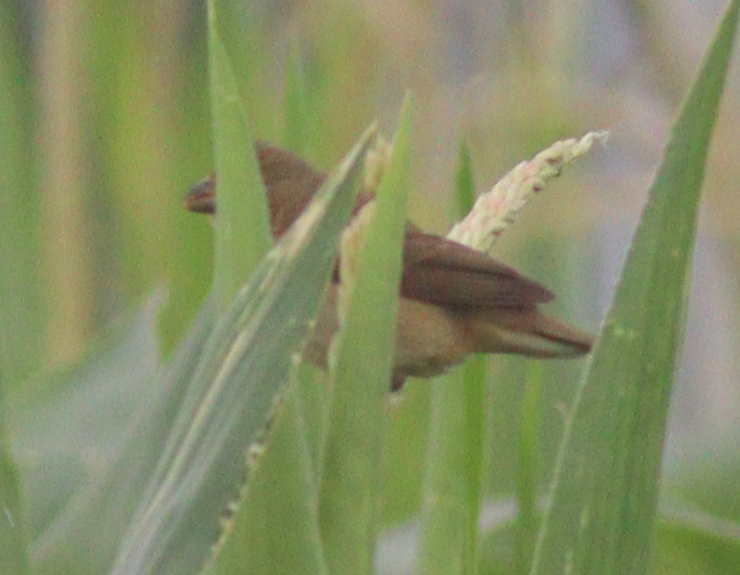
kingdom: Animalia
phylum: Chordata
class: Aves
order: Passeriformes
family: Thraupidae
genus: Sporophila
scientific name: Sporophila caerulescens
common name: Double-collared seedeater
